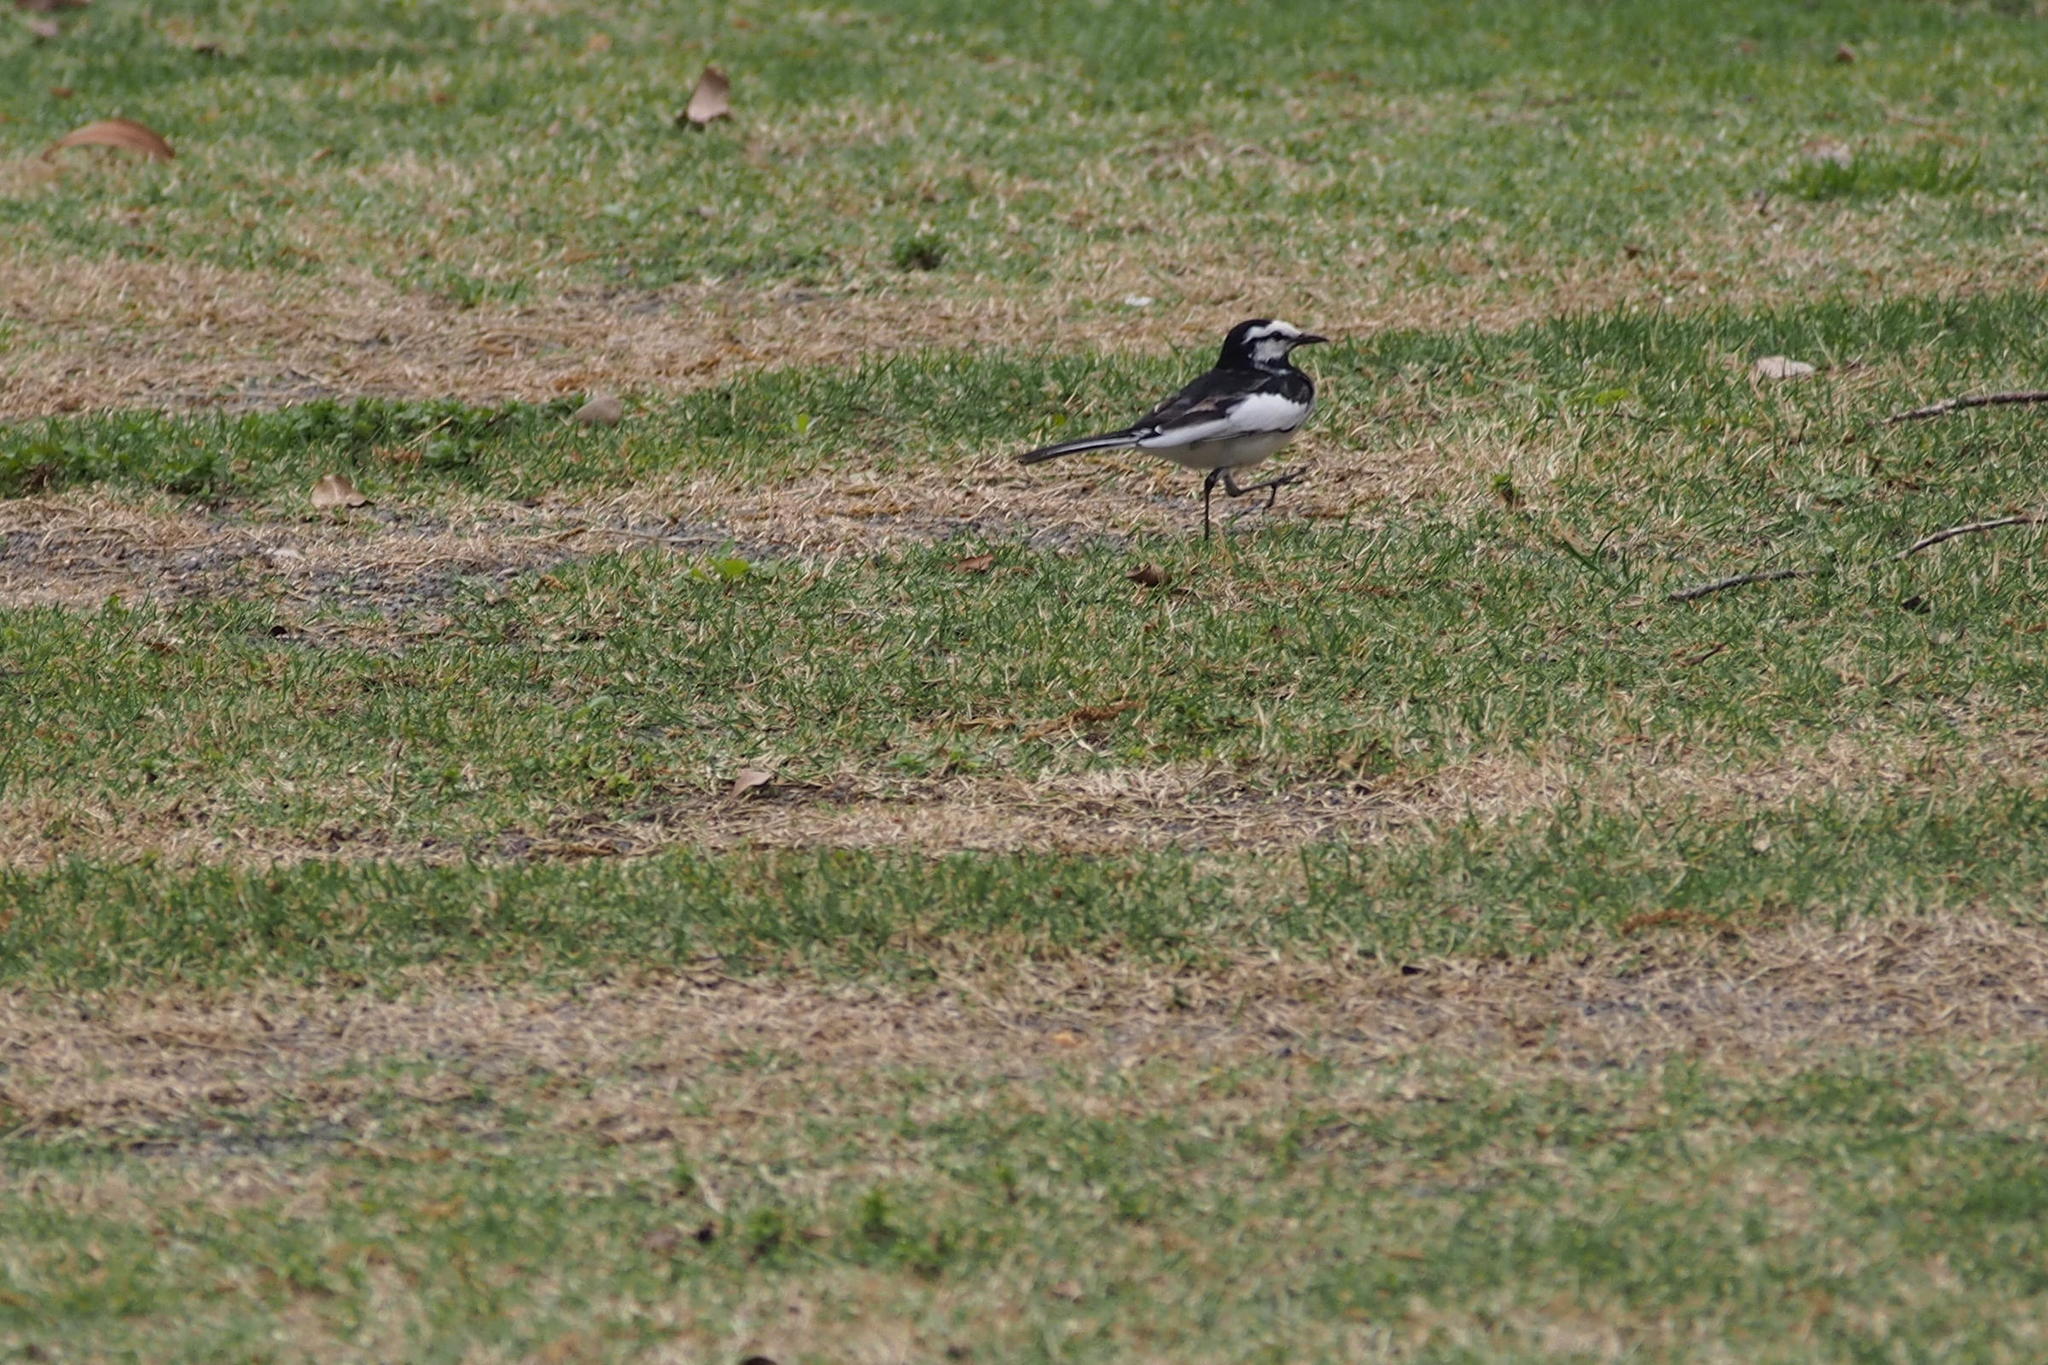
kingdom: Animalia
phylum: Chordata
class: Aves
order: Passeriformes
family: Motacillidae
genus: Motacilla
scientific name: Motacilla alba
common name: White wagtail
